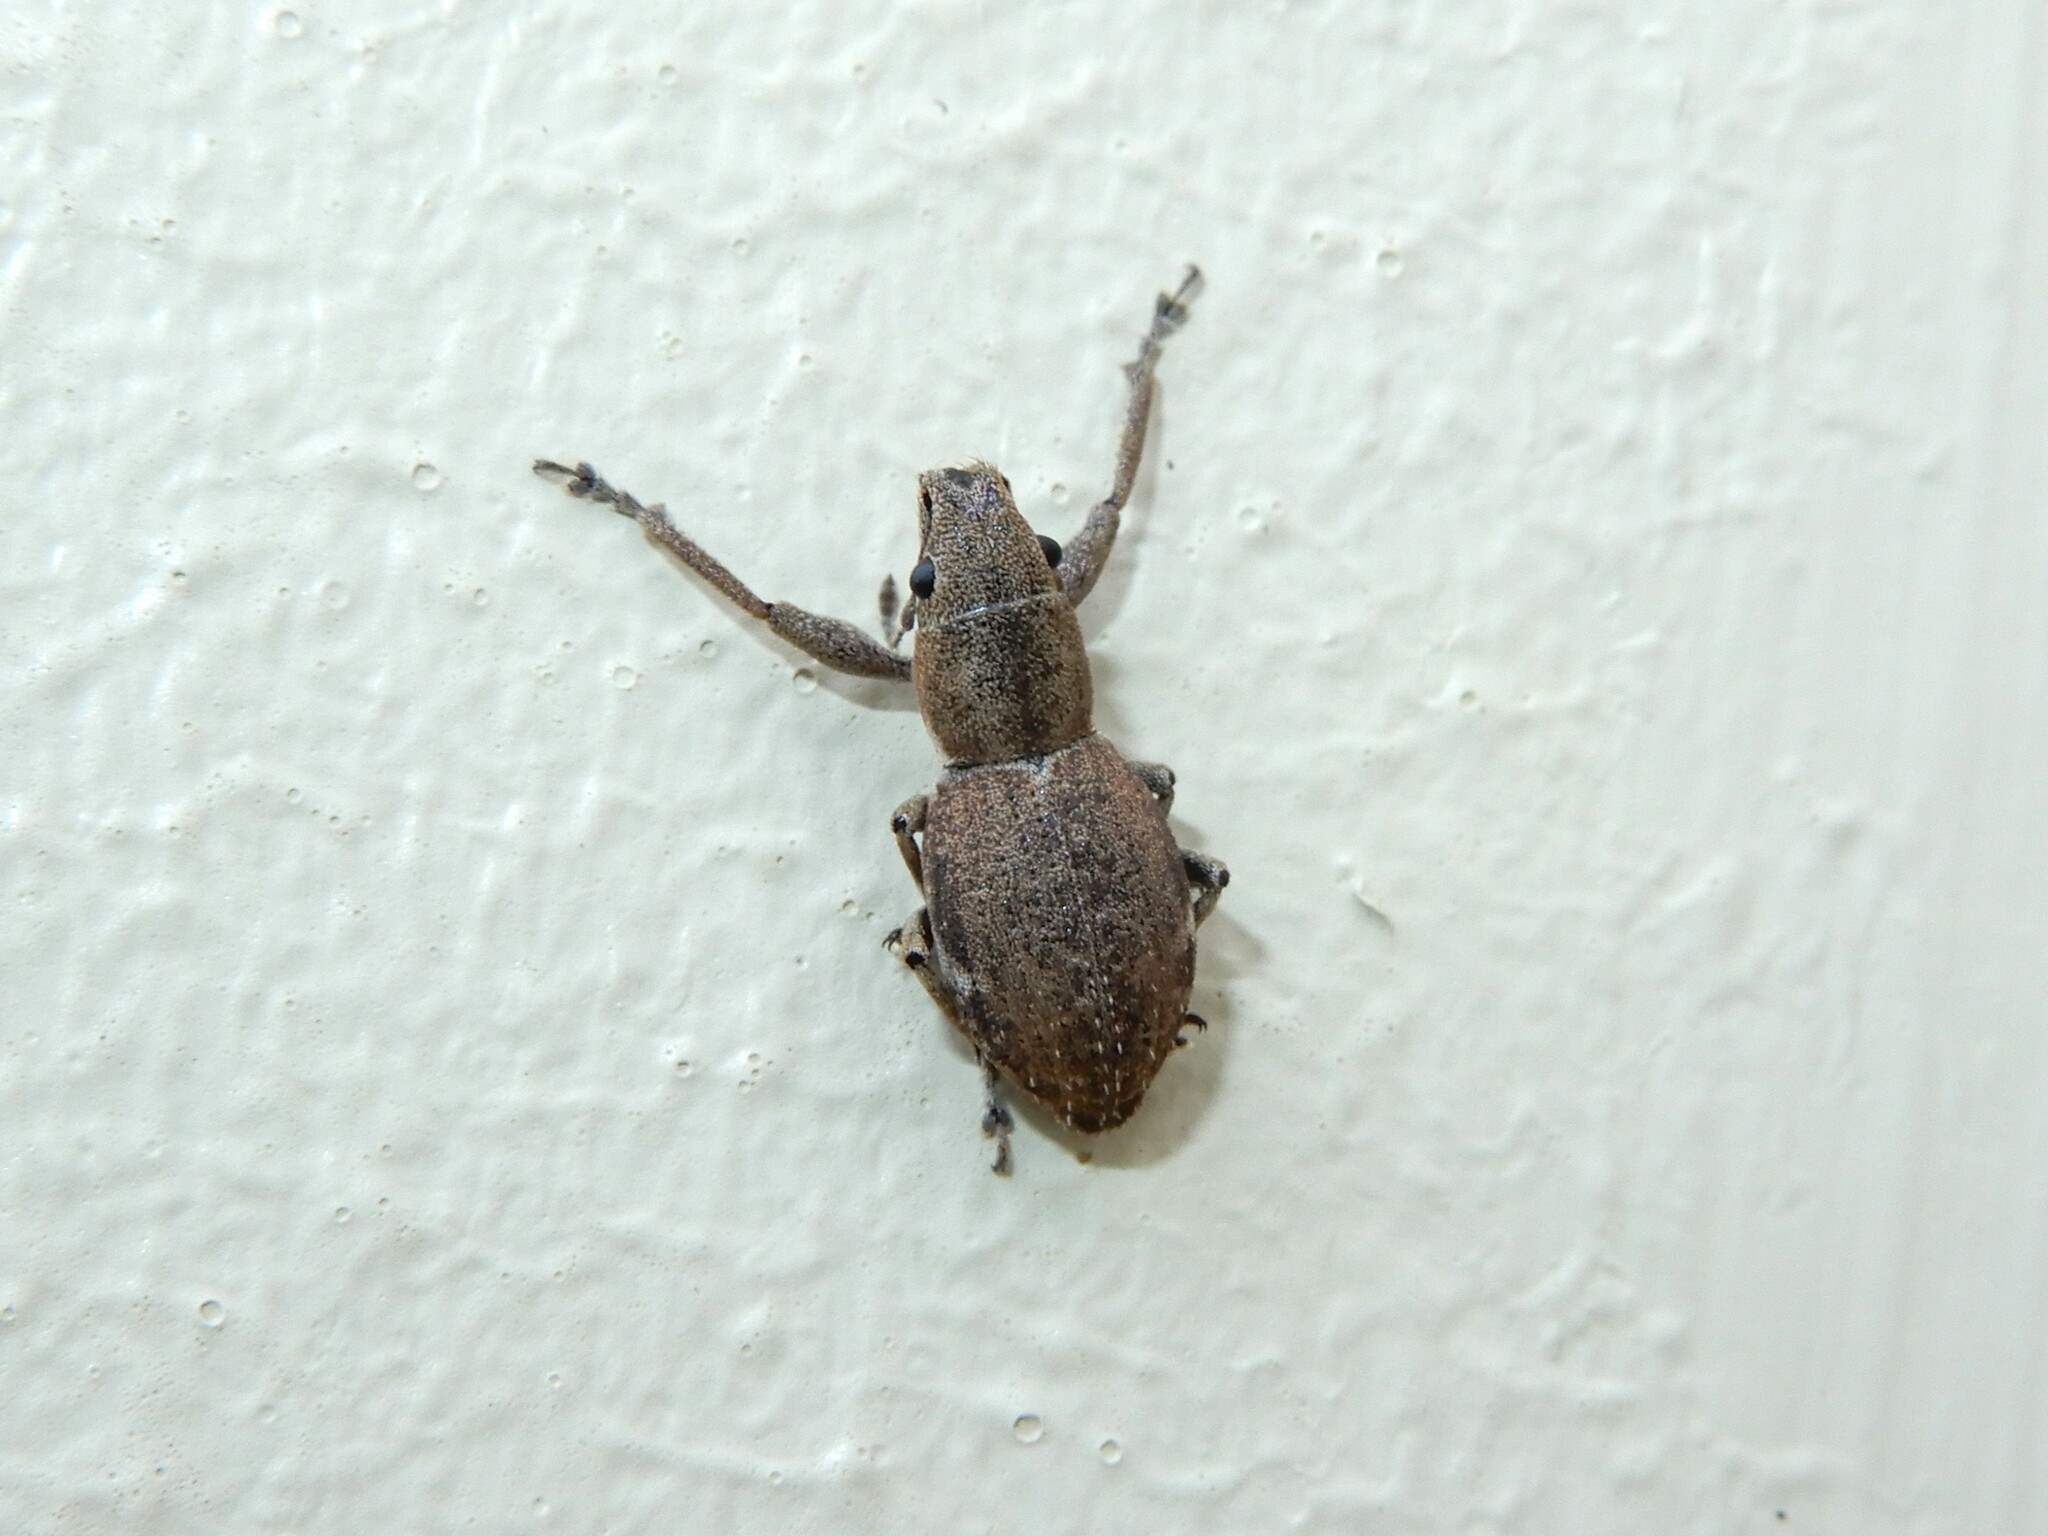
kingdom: Animalia
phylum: Arthropoda
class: Insecta
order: Coleoptera
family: Curculionidae
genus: Naupactus
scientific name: Naupactus cervinus
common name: Fuller rose beetle
